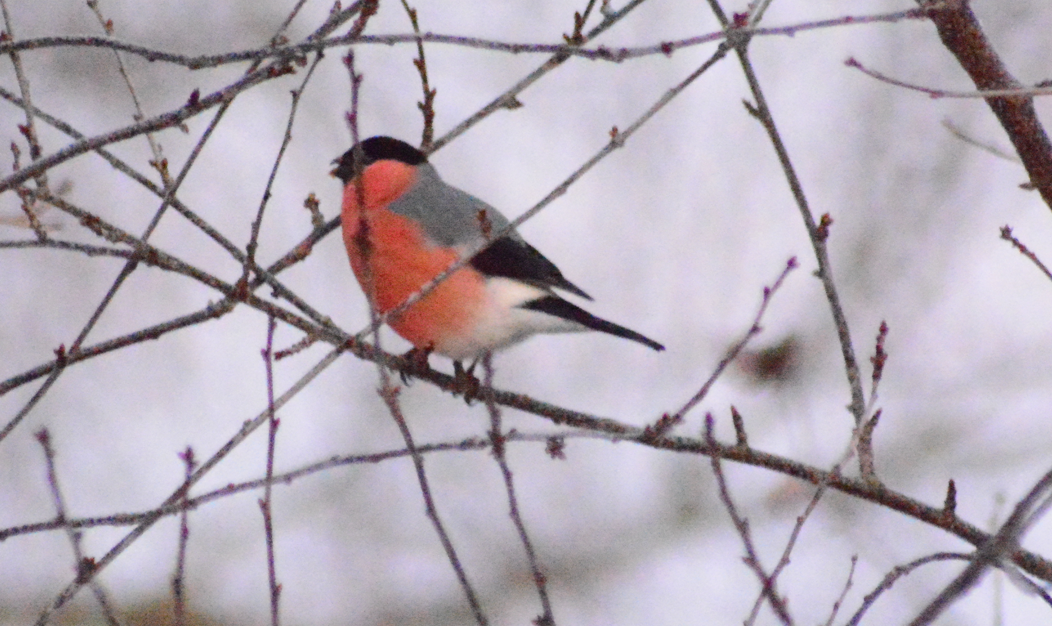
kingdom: Animalia
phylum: Chordata
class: Aves
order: Passeriformes
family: Fringillidae
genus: Pyrrhula
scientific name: Pyrrhula pyrrhula
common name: Eurasian bullfinch
